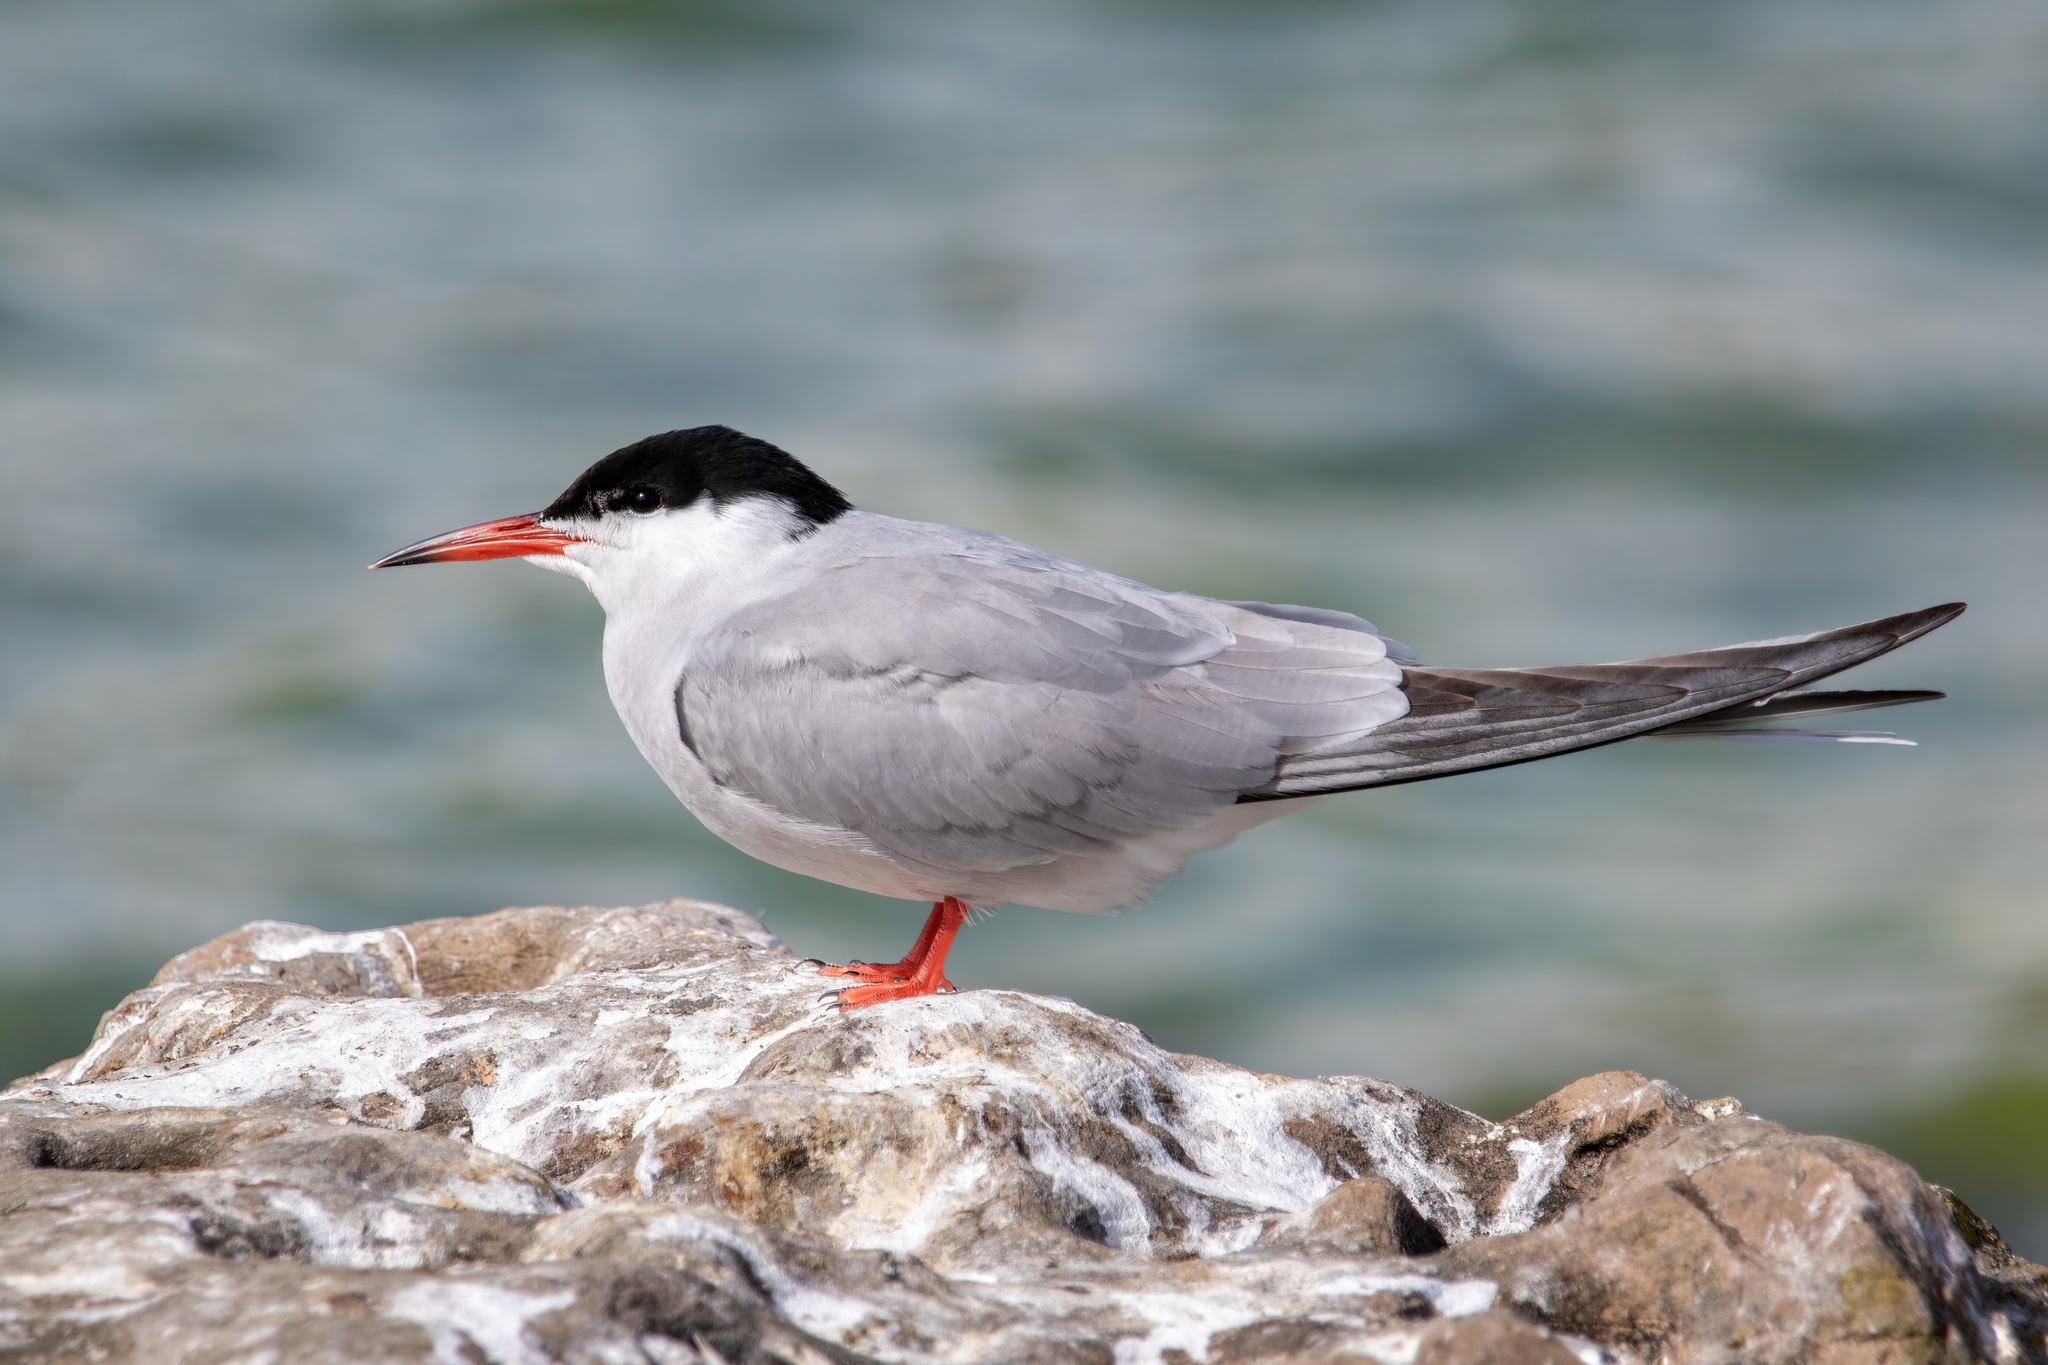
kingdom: Animalia
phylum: Chordata
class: Aves
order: Charadriiformes
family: Laridae
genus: Sterna
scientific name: Sterna hirundo
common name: Common tern
